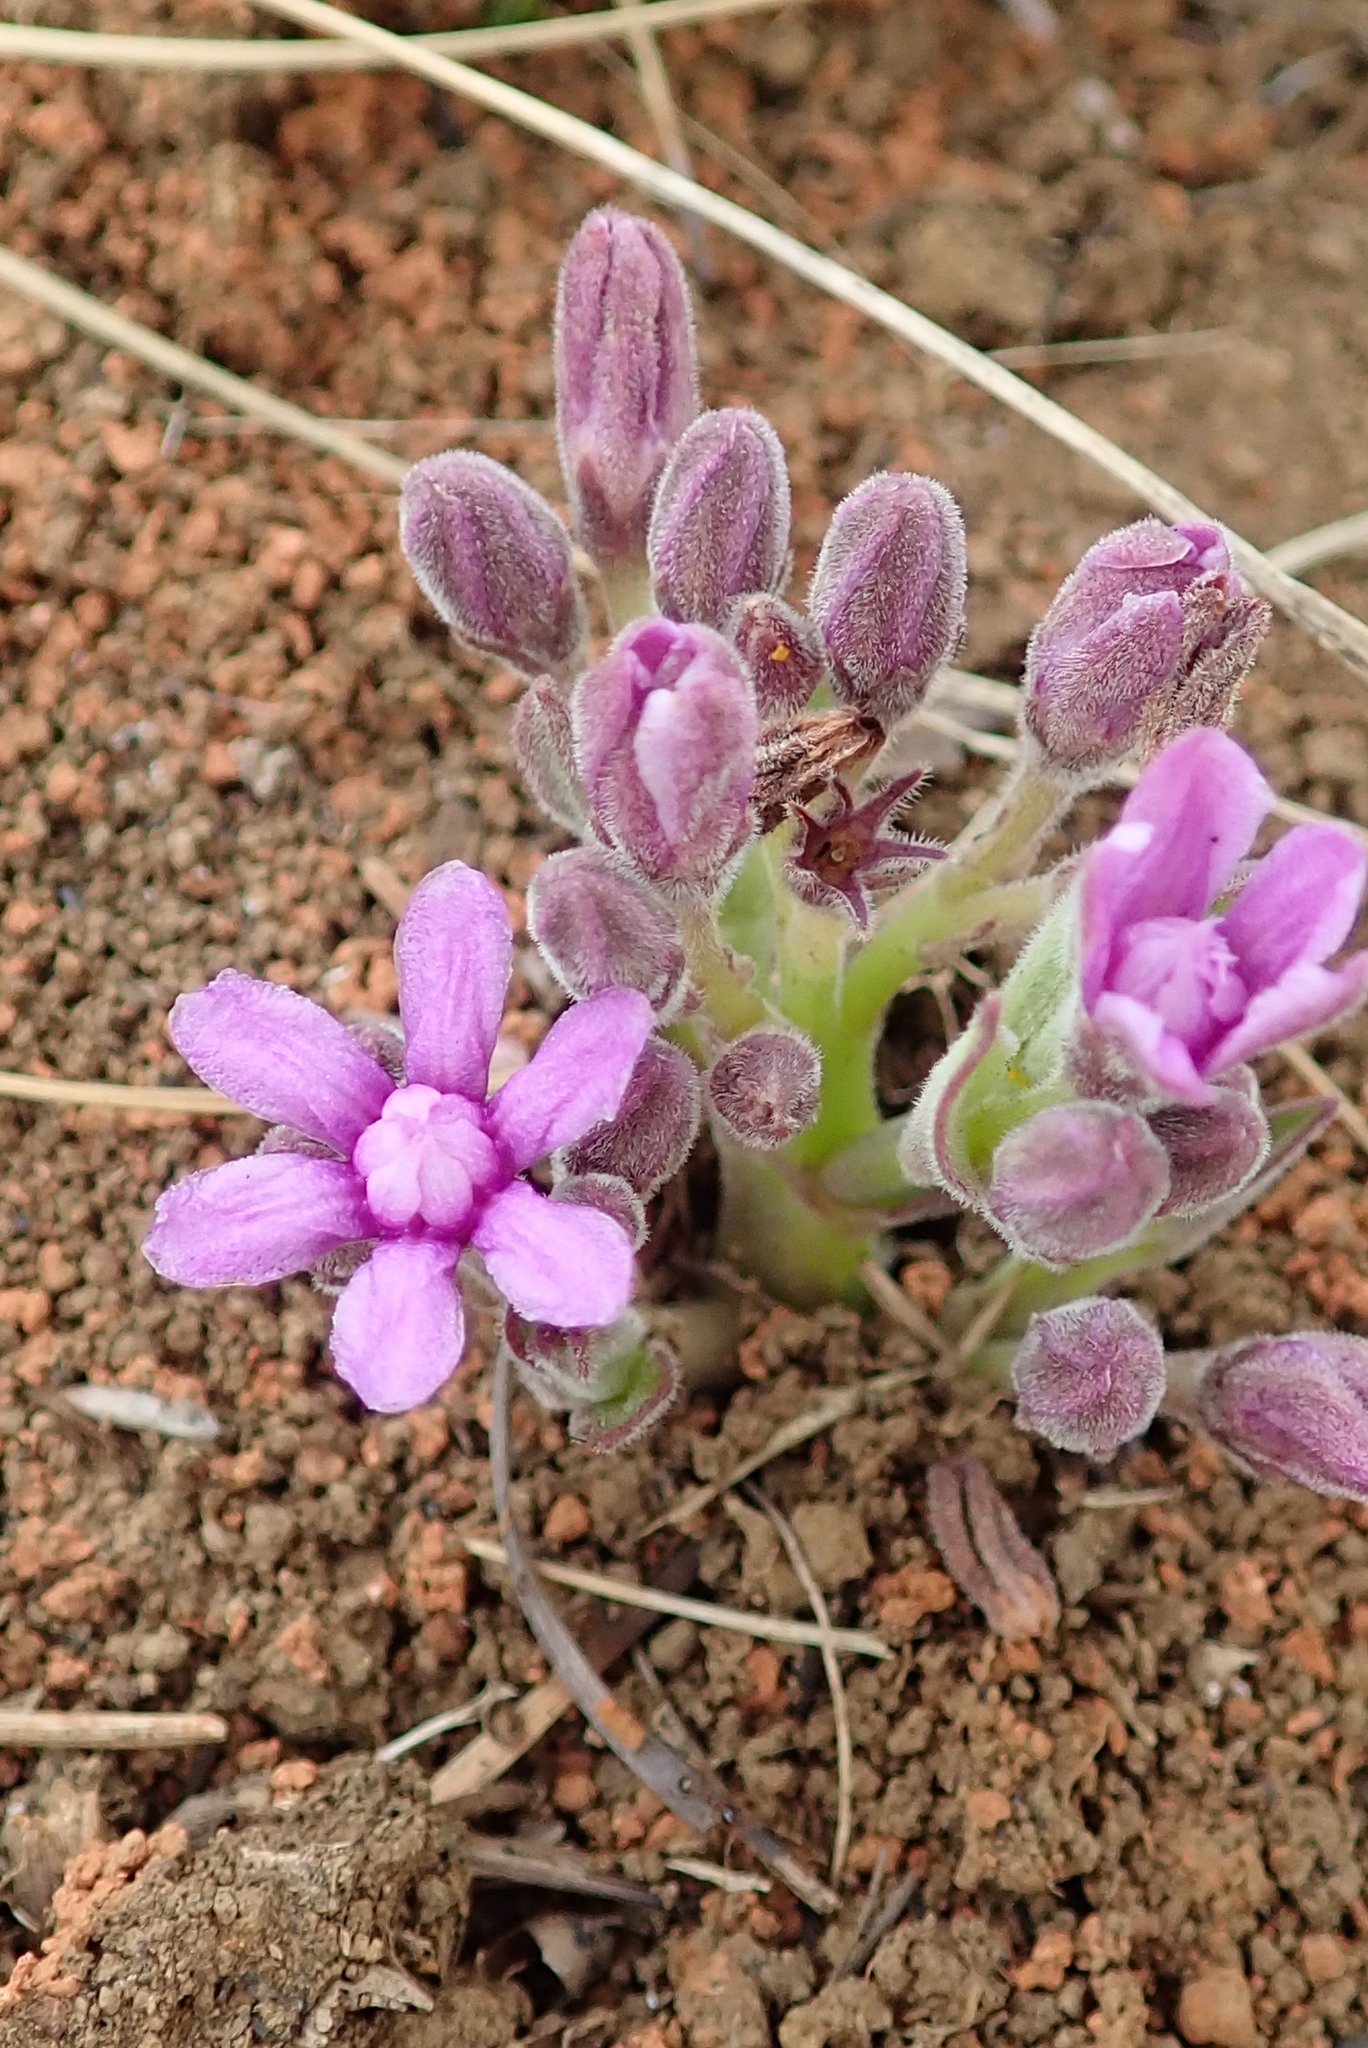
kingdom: Plantae
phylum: Tracheophyta
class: Magnoliopsida
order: Gentianales
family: Apocynaceae
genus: Raphionacme
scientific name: Raphionacme hirsuta
